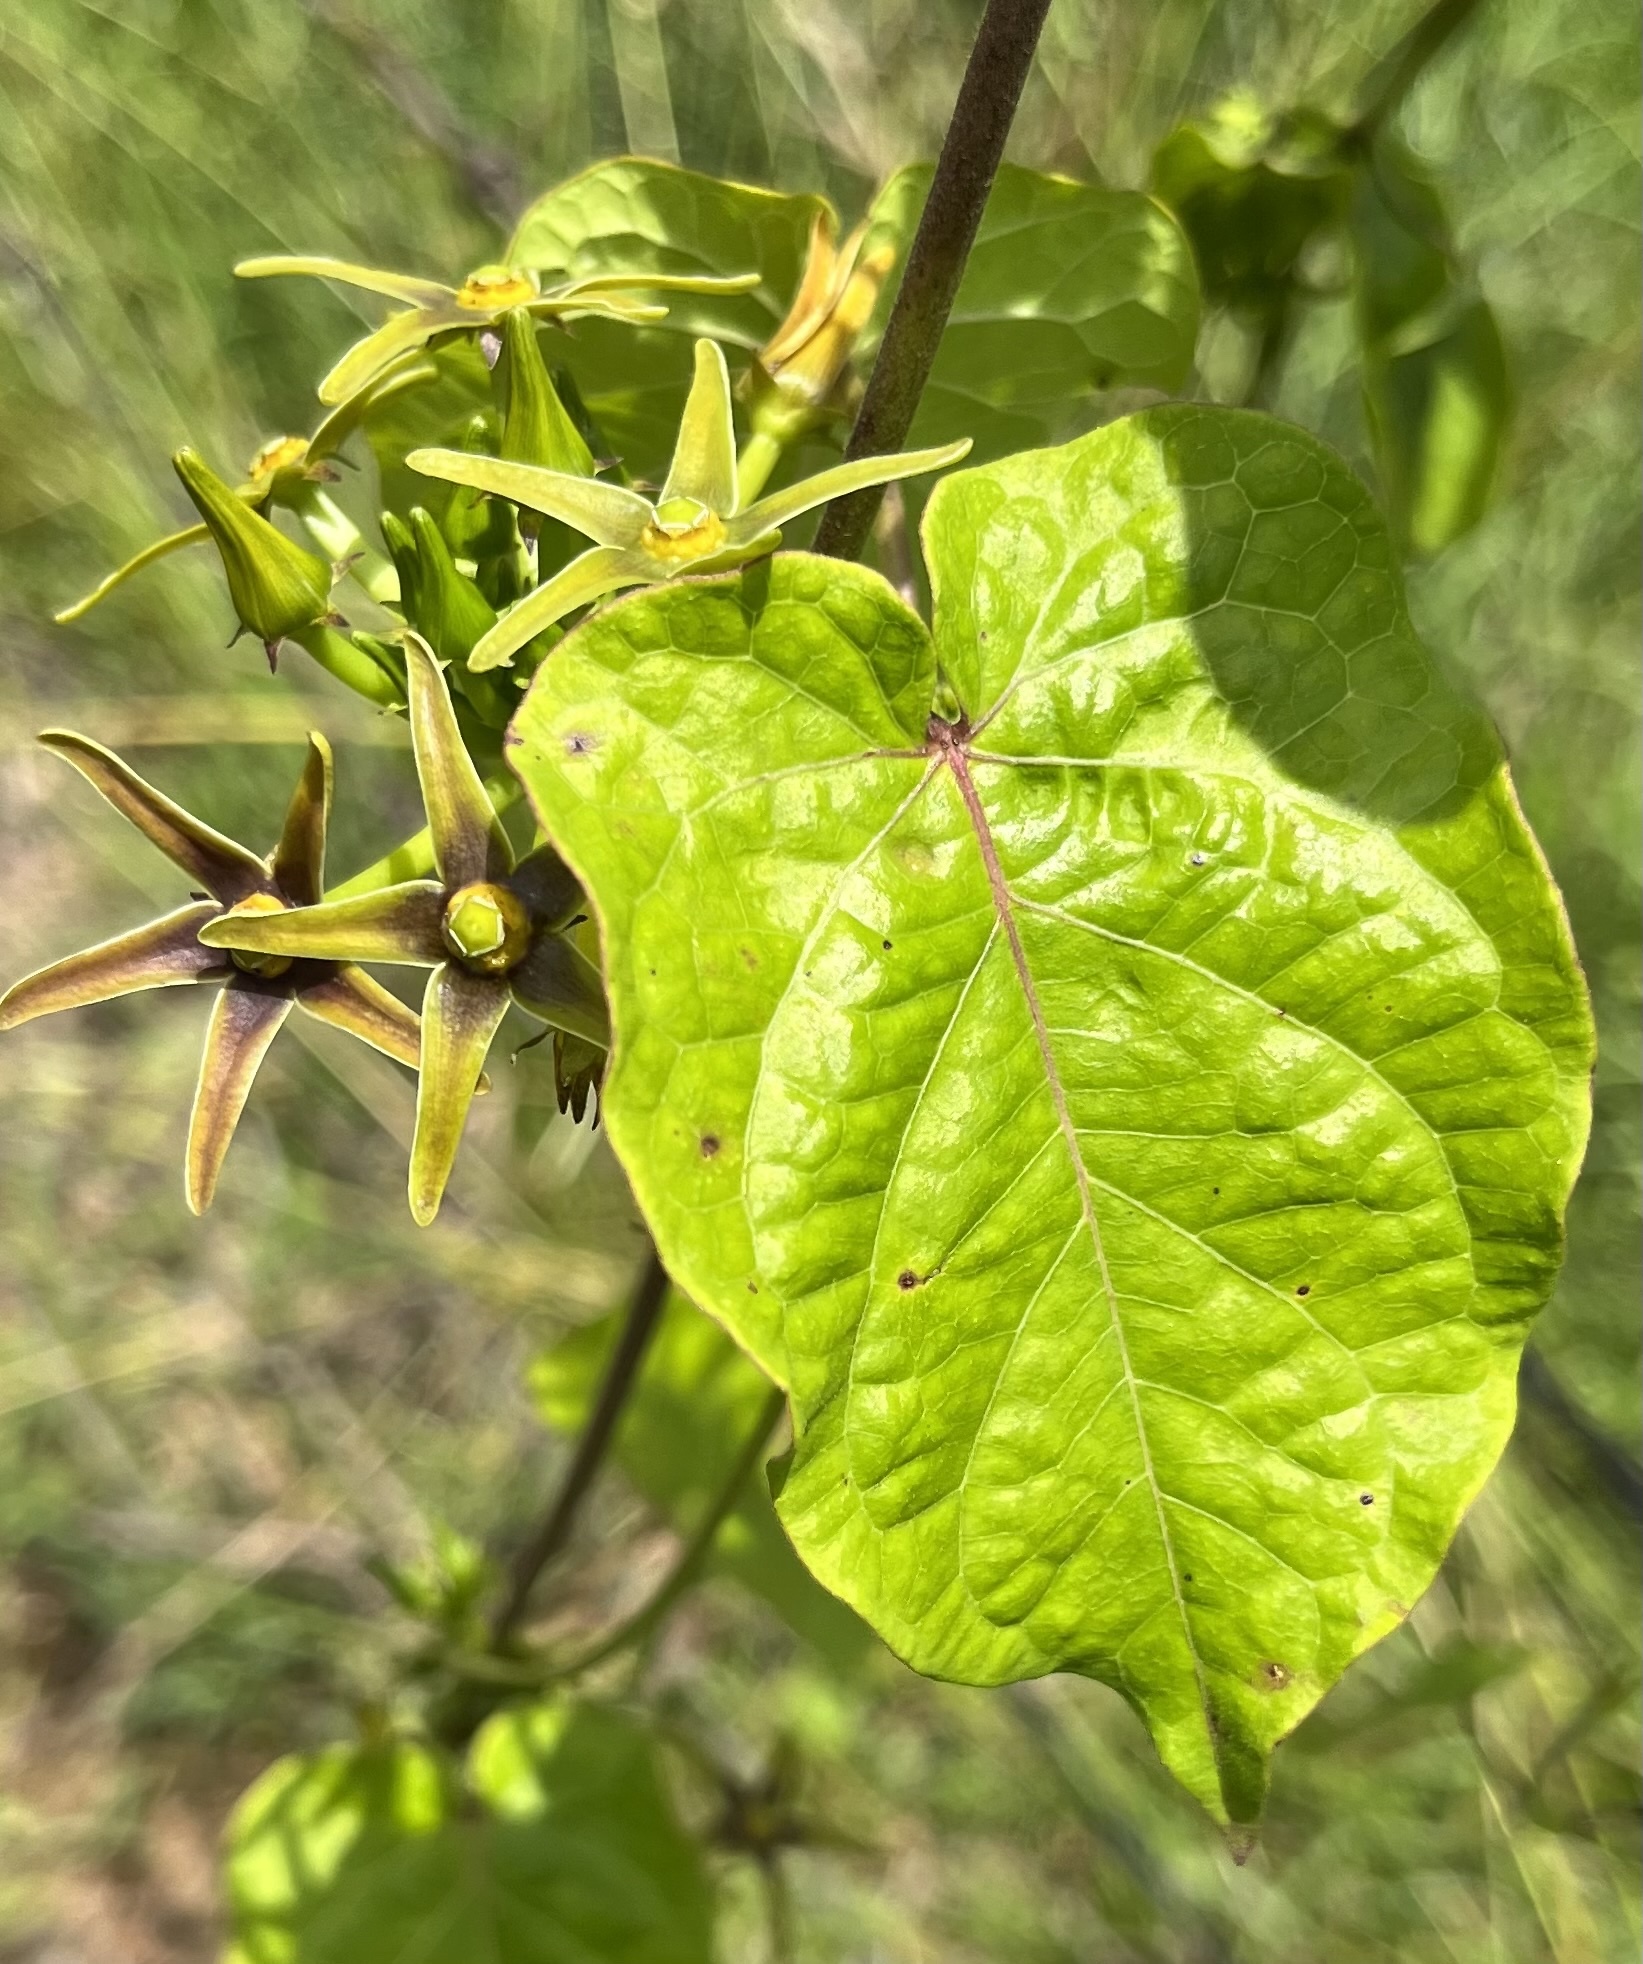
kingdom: Plantae
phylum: Tracheophyta
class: Magnoliopsida
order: Gentianales
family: Apocynaceae
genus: Gonolobus
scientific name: Gonolobus suberosus
